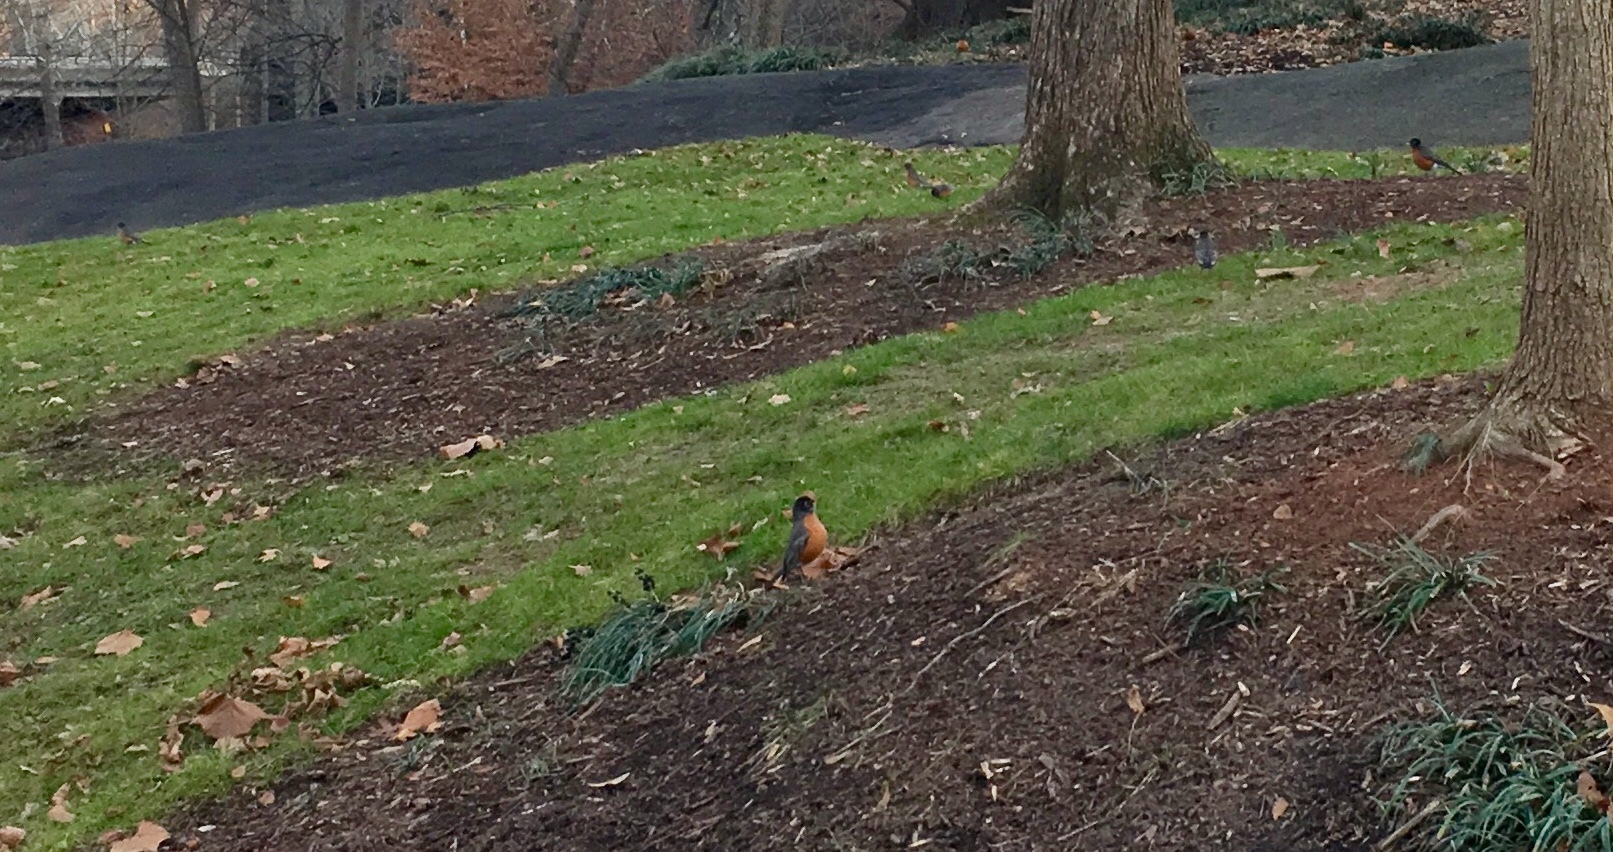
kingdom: Animalia
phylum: Chordata
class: Aves
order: Passeriformes
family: Turdidae
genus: Turdus
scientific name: Turdus migratorius
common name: American robin
